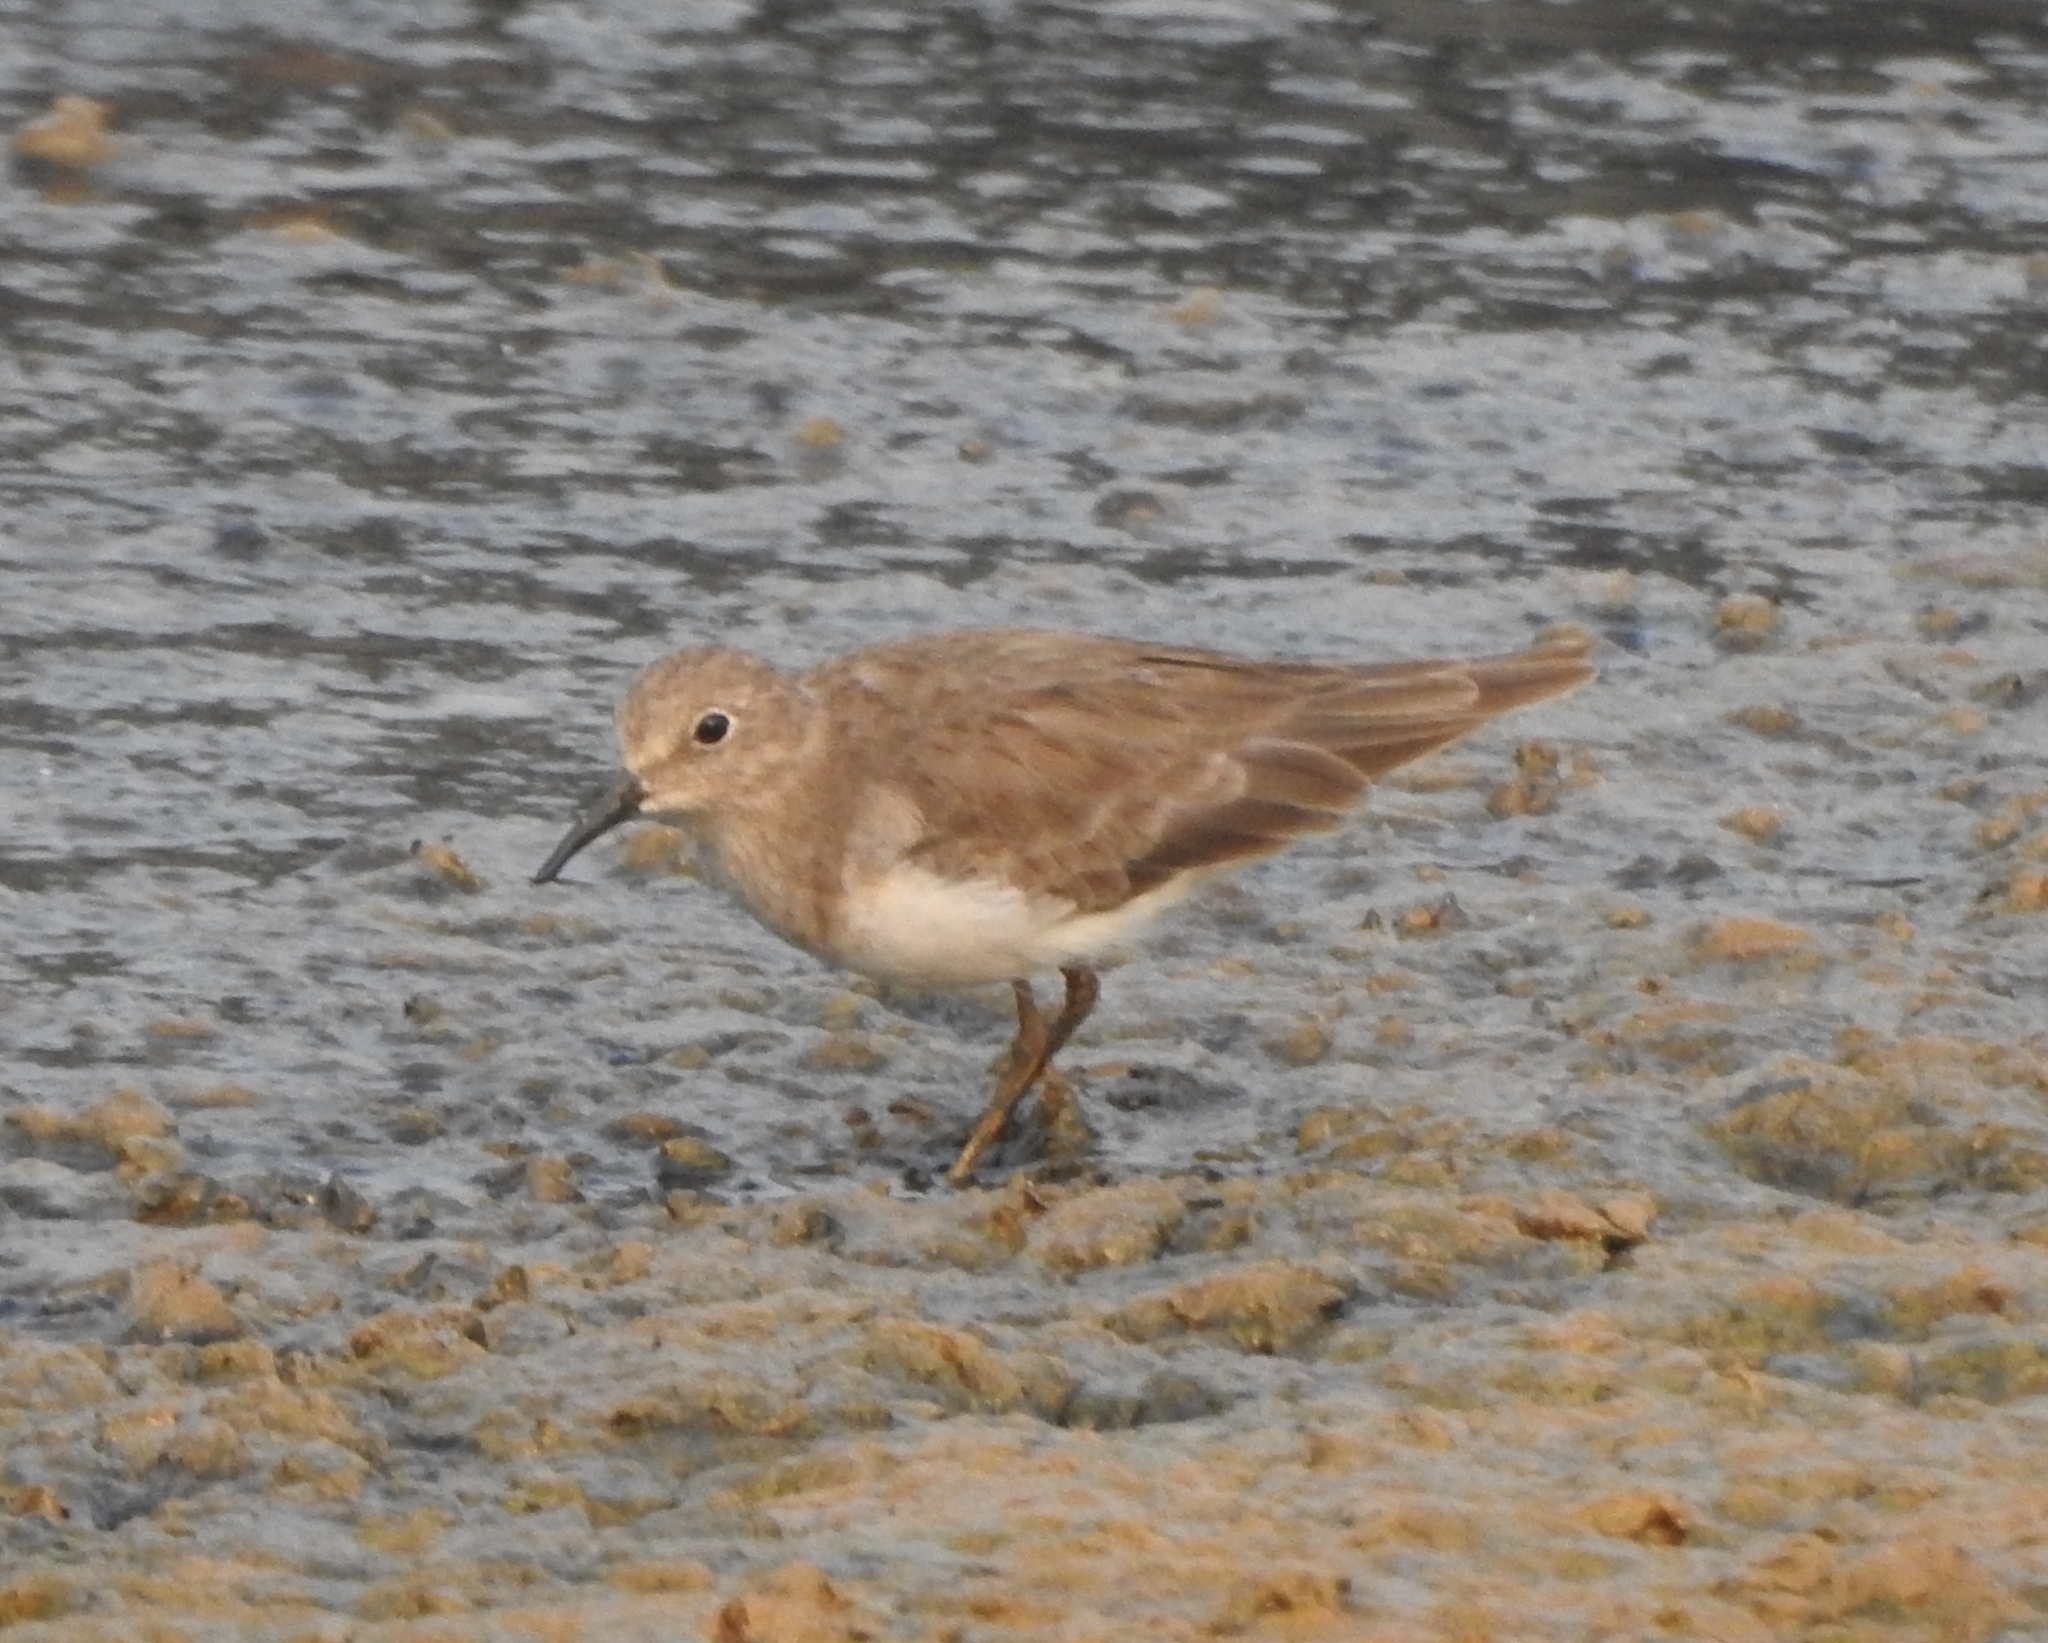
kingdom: Animalia
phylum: Chordata
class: Aves
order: Charadriiformes
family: Scolopacidae
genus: Calidris
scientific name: Calidris temminckii
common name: Temminck's stint
